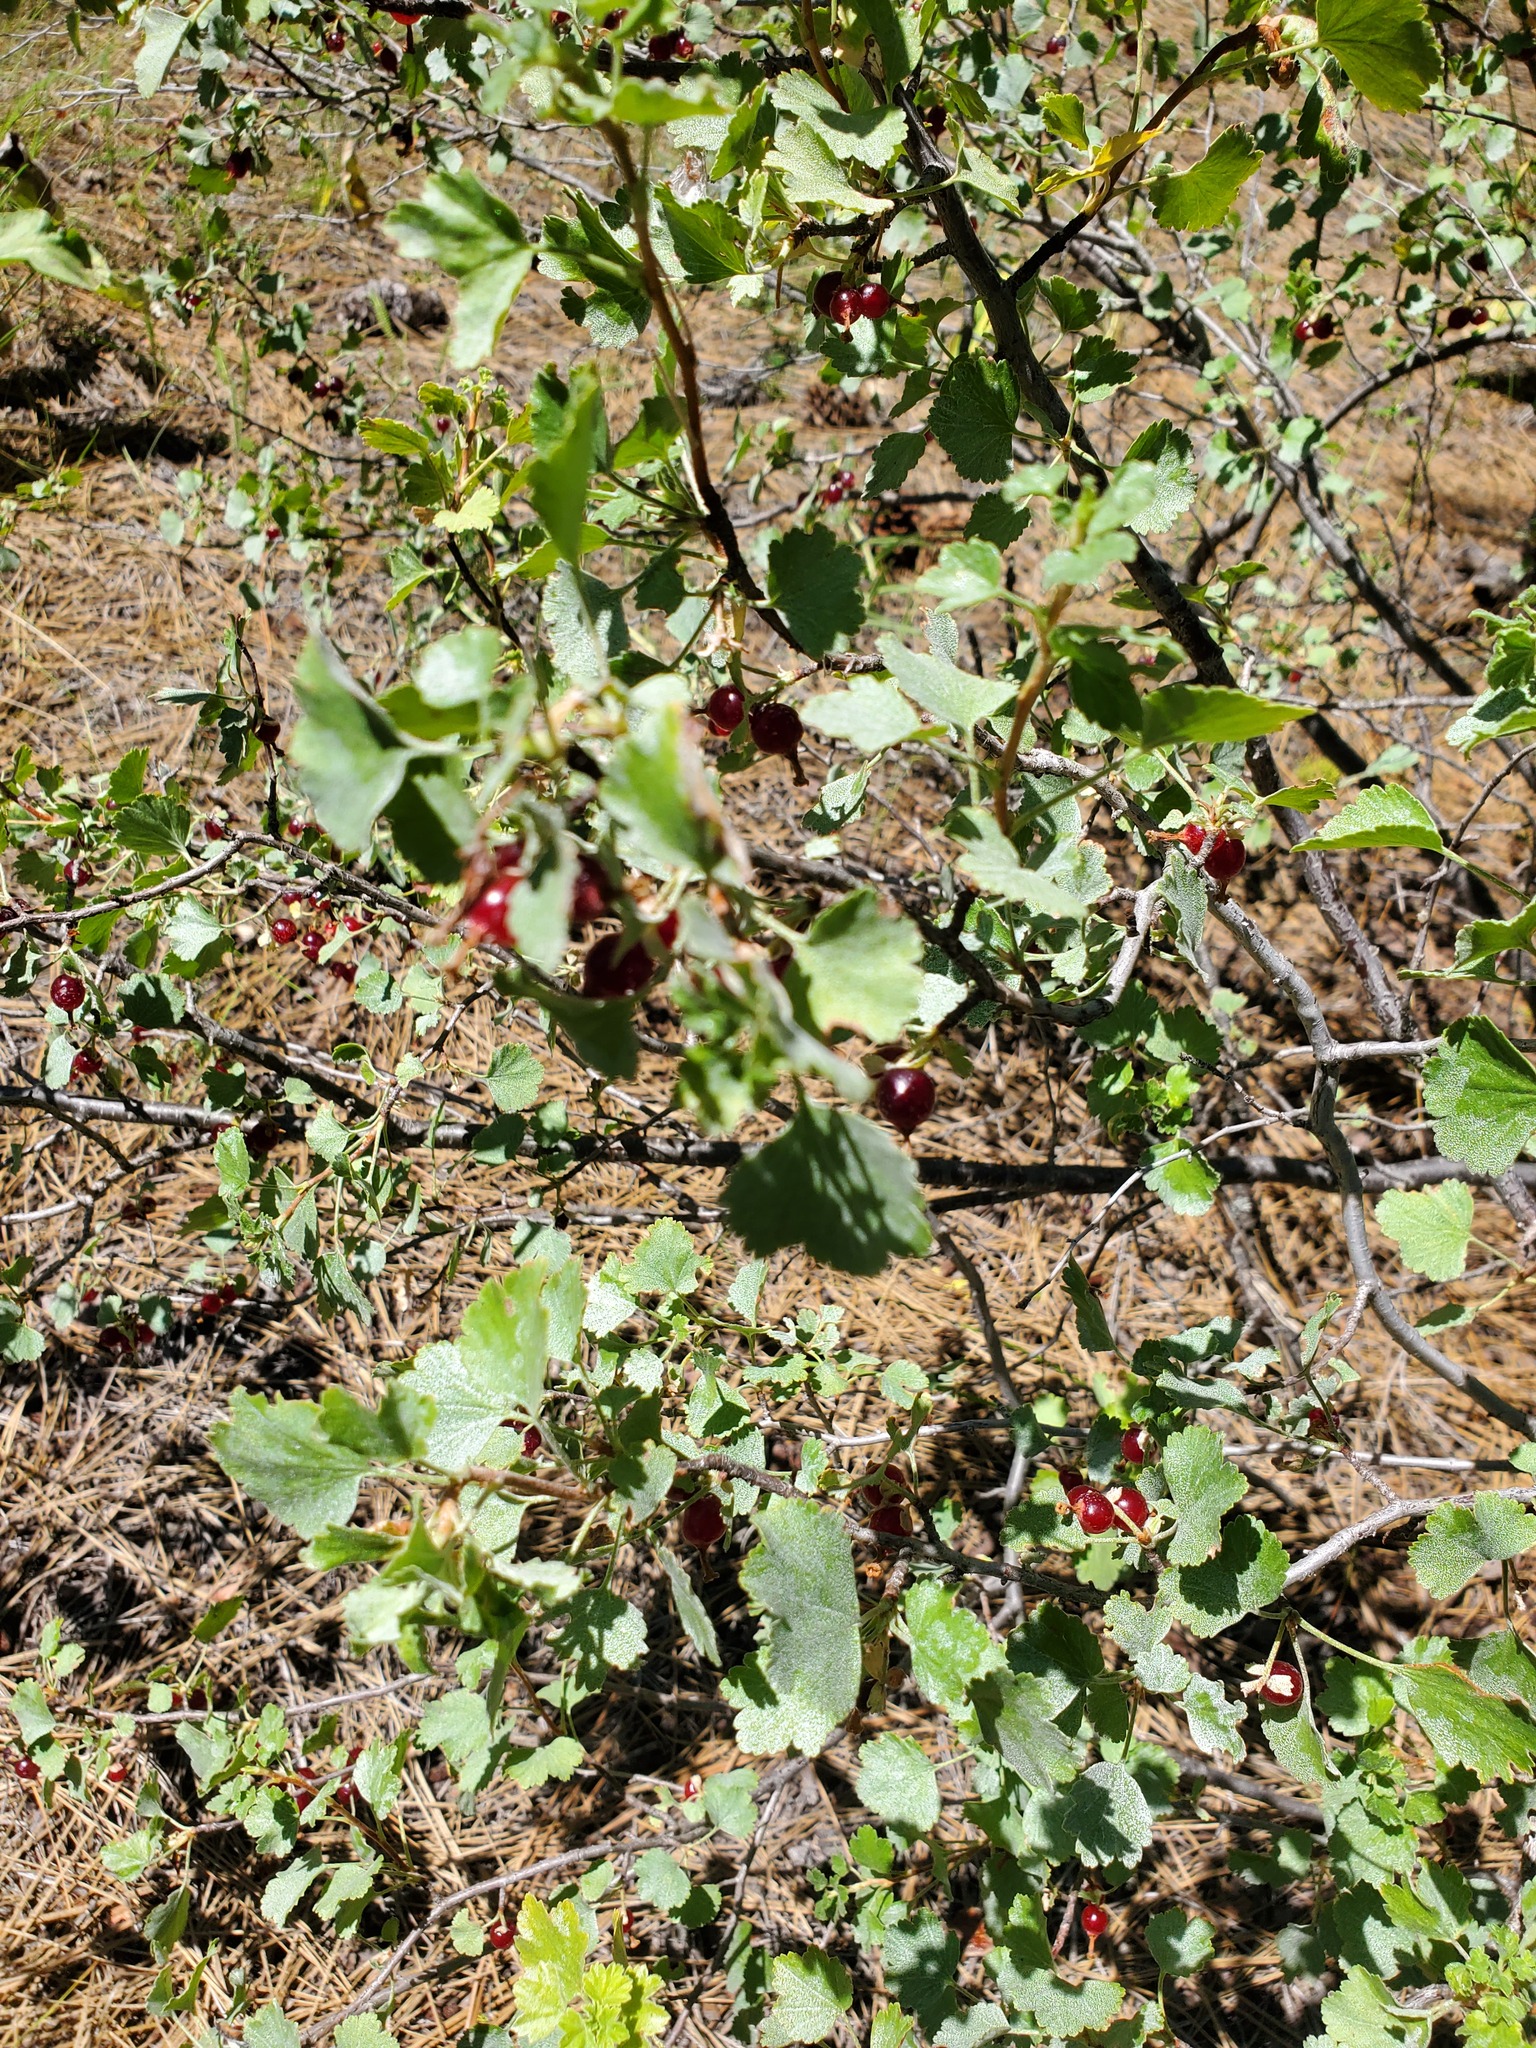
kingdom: Plantae
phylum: Tracheophyta
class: Magnoliopsida
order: Saxifragales
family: Grossulariaceae
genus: Ribes
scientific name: Ribes cereum
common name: Wax currant
